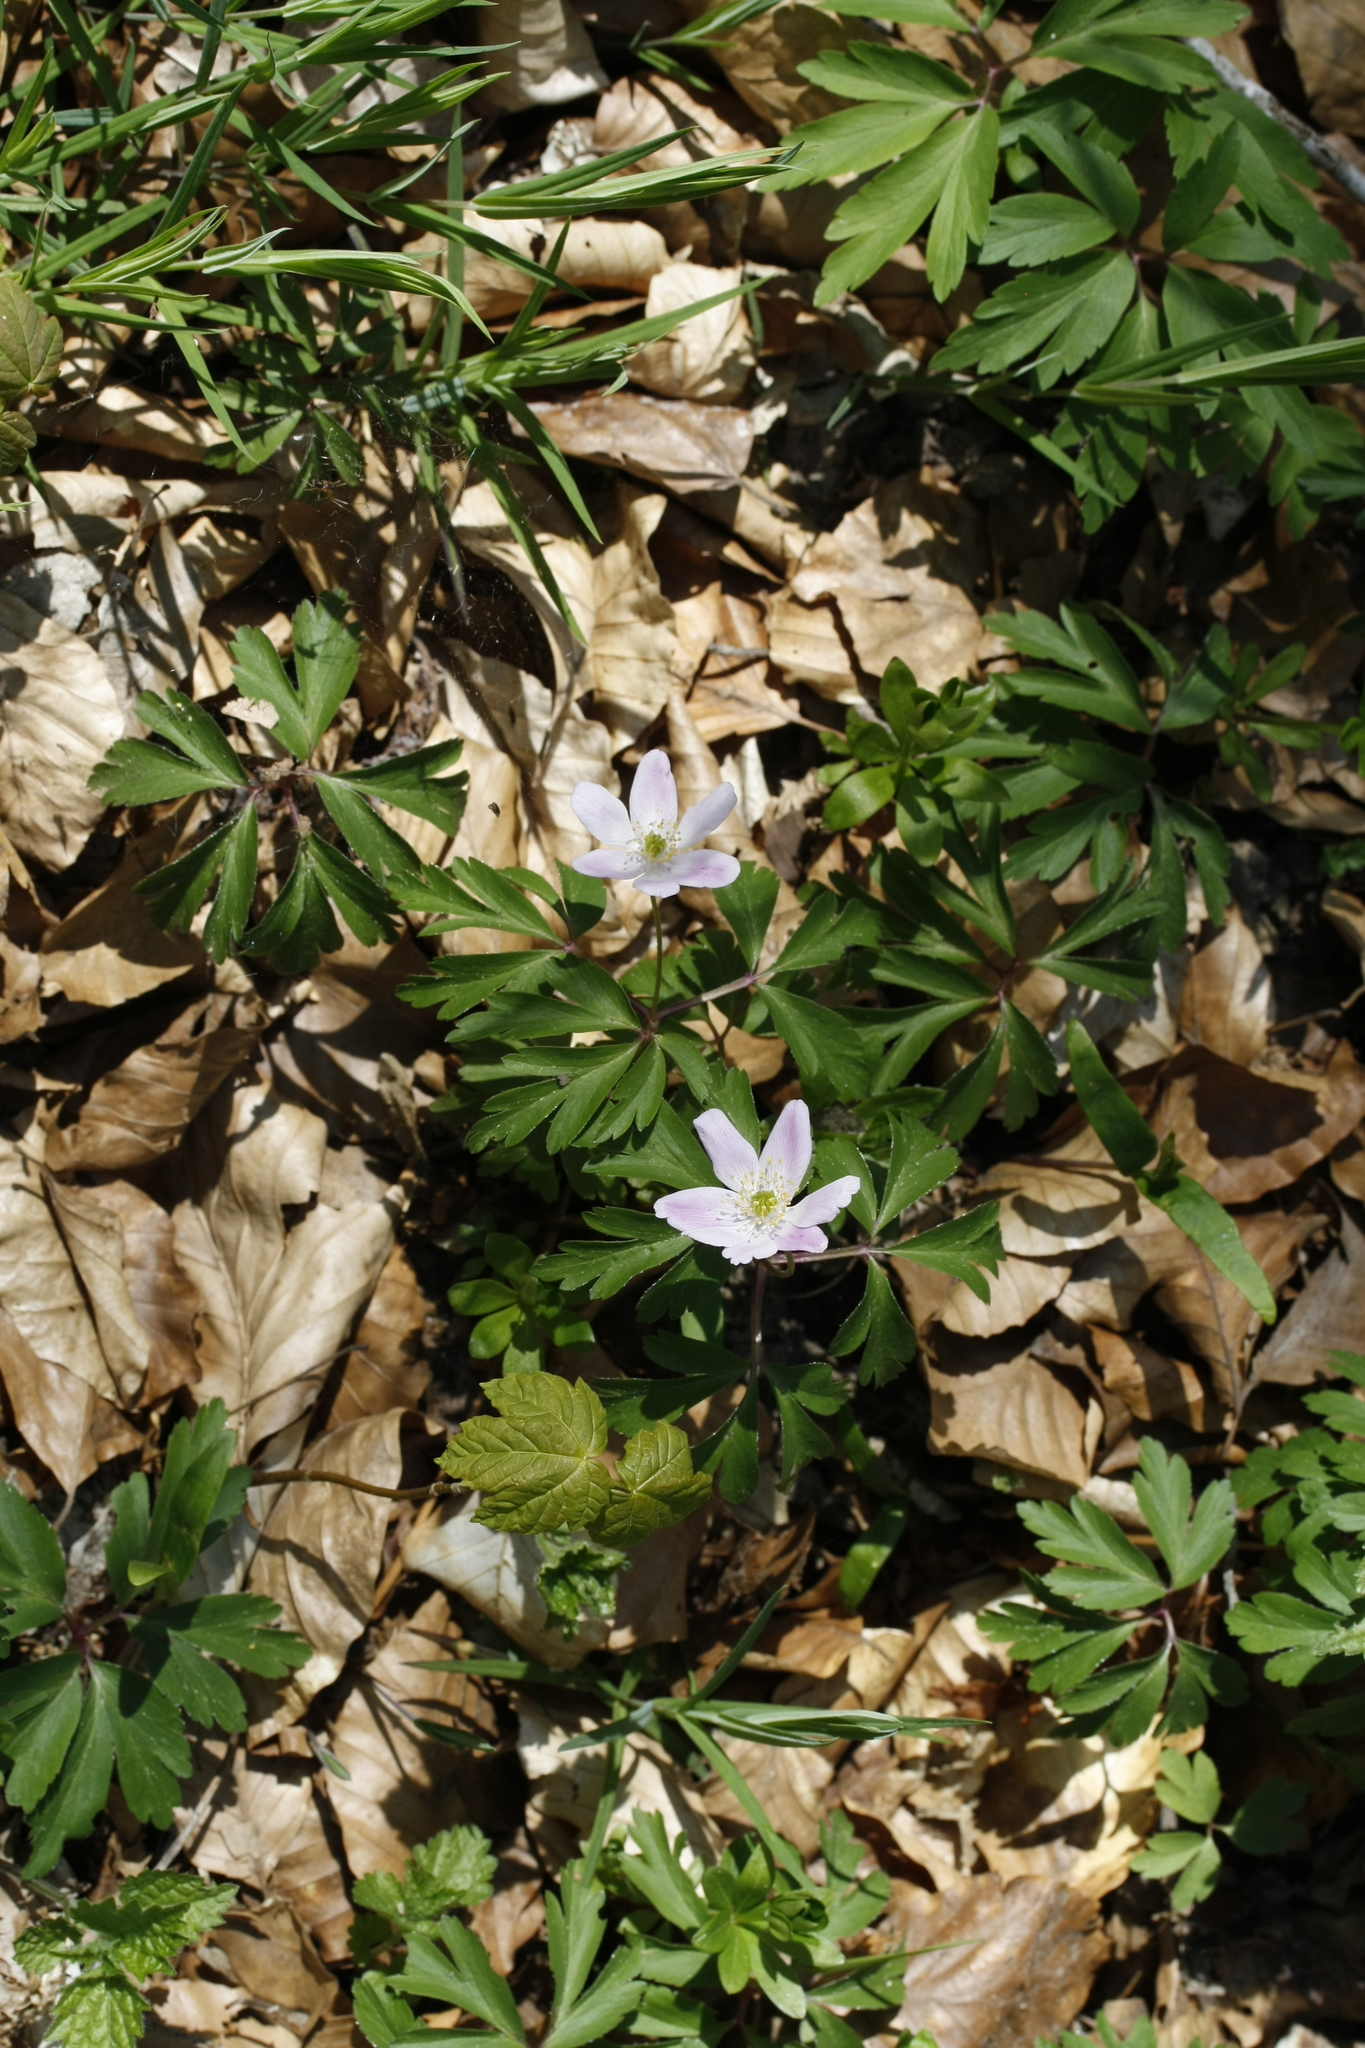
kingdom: Plantae
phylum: Tracheophyta
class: Magnoliopsida
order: Ranunculales
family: Ranunculaceae
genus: Anemone
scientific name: Anemone nemorosa
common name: Wood anemone
